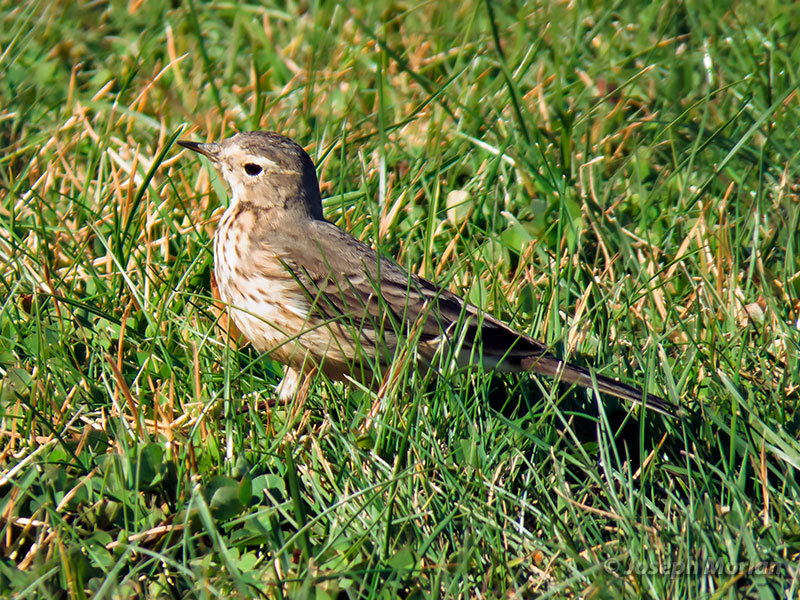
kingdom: Animalia
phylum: Chordata
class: Aves
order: Passeriformes
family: Motacillidae
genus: Anthus
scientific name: Anthus rubescens
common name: Buff-bellied pipit
